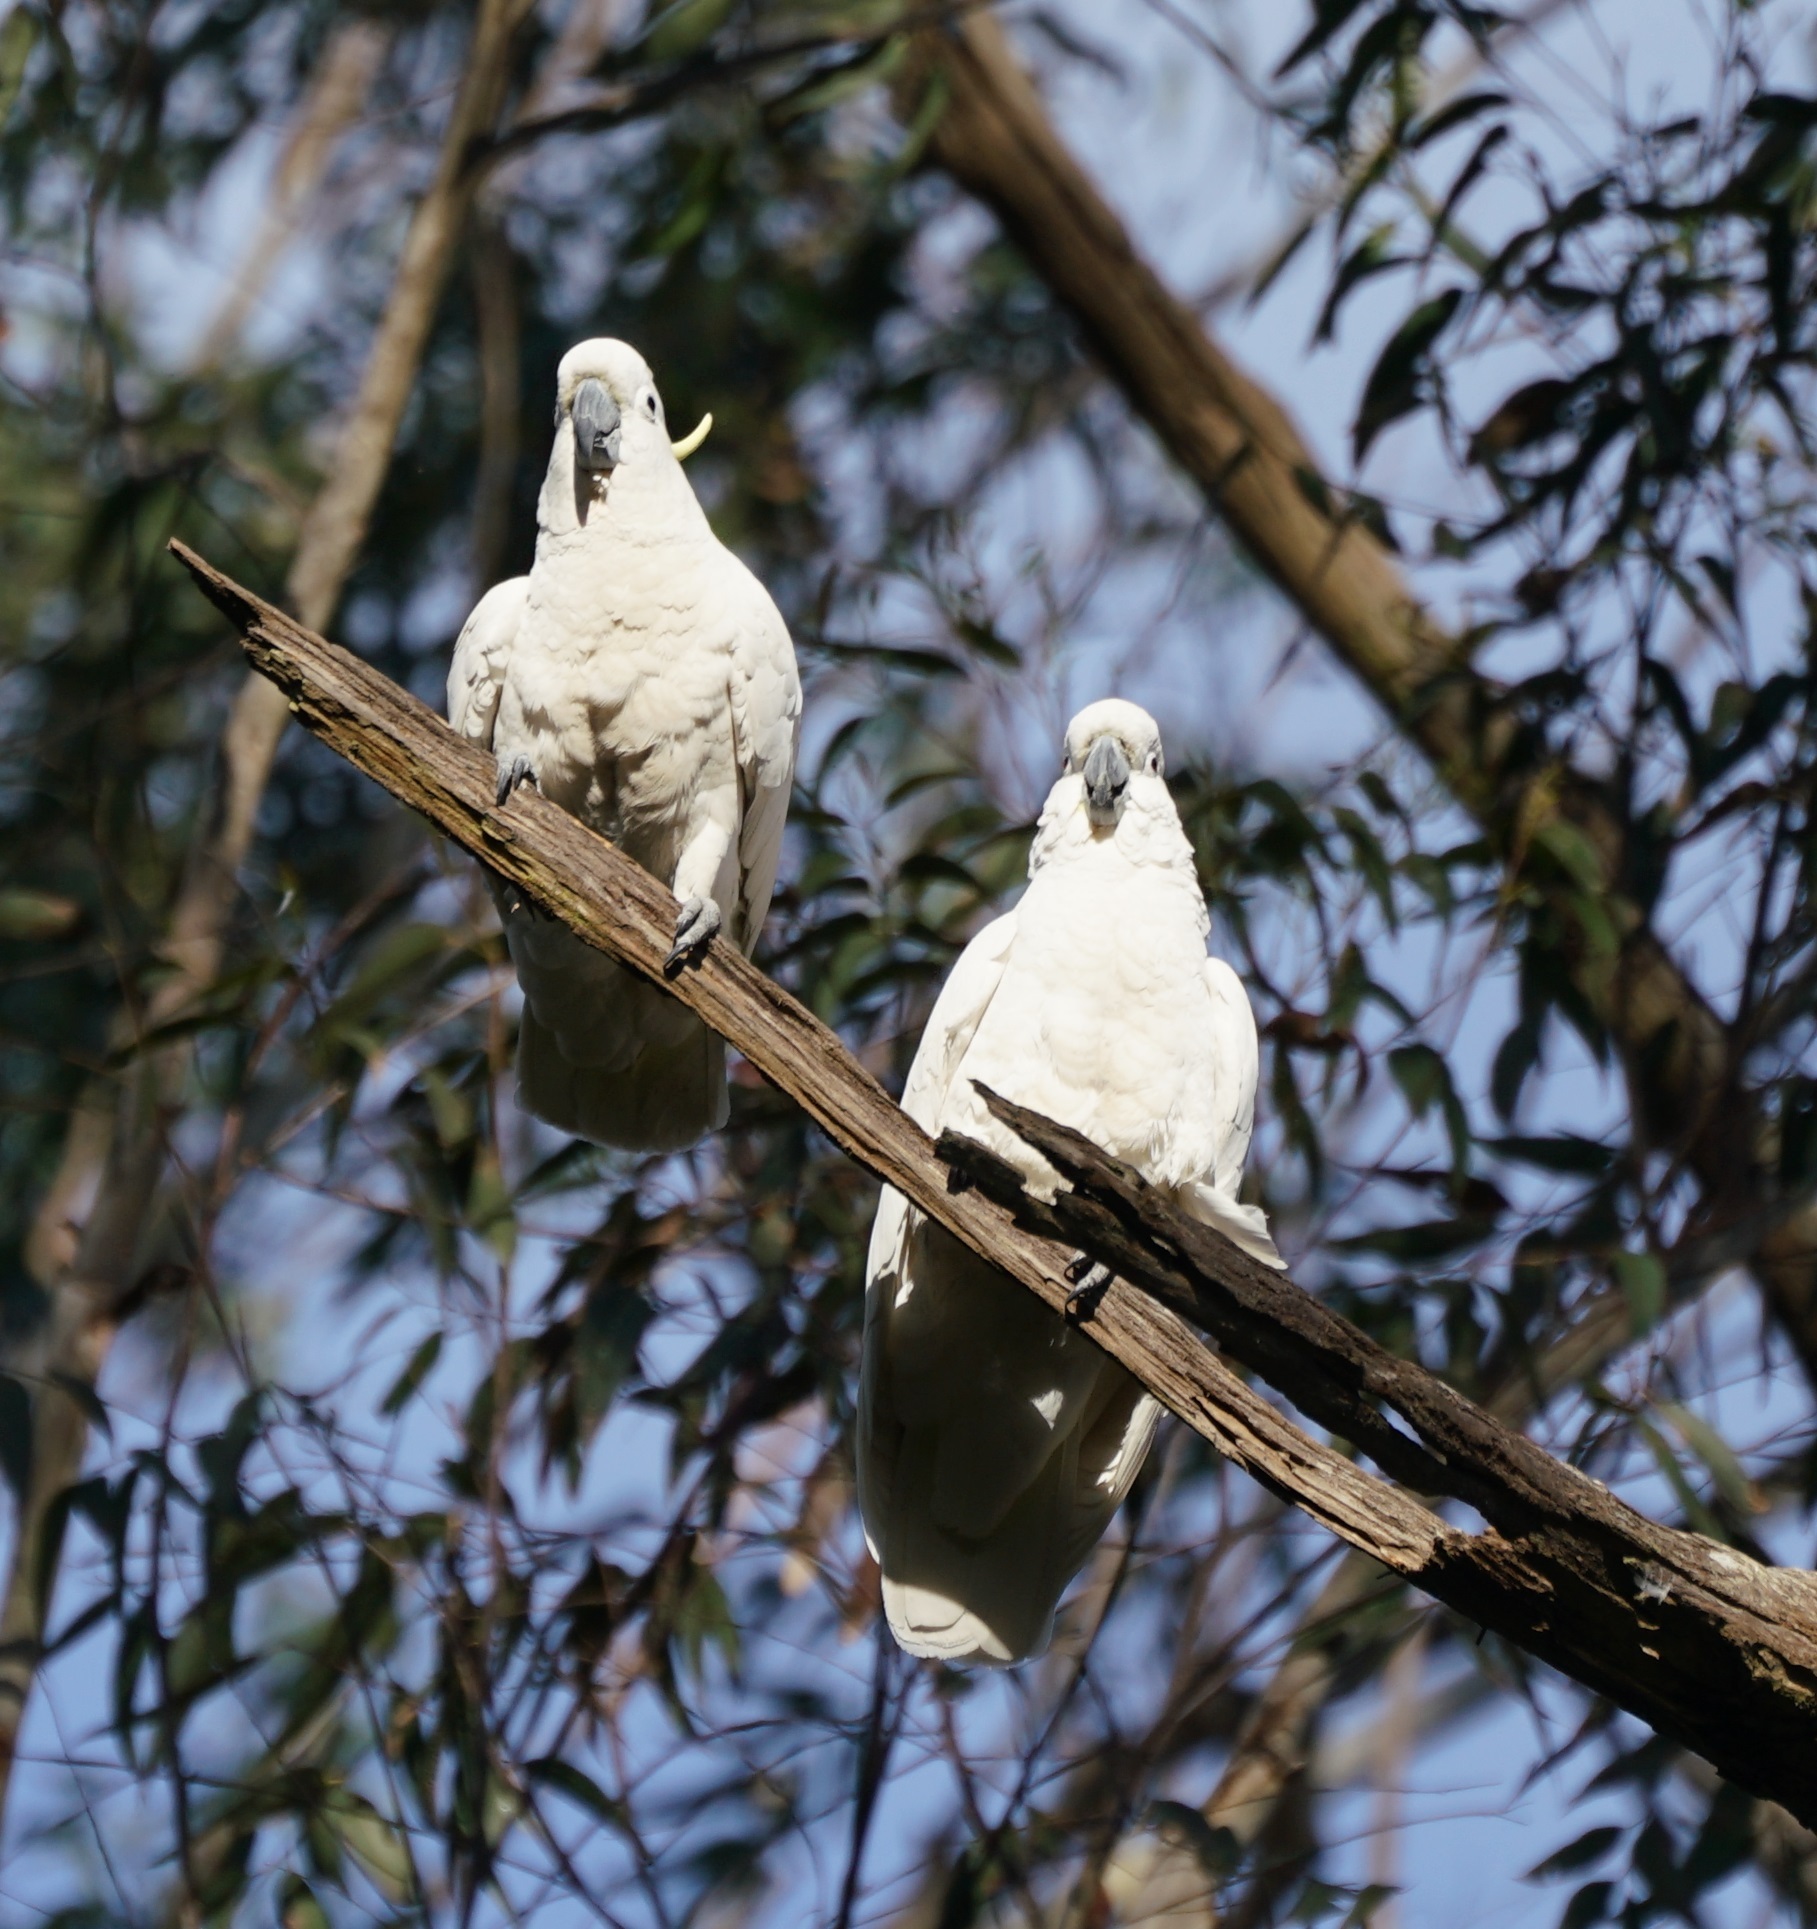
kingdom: Animalia
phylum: Chordata
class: Aves
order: Psittaciformes
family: Psittacidae
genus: Cacatua
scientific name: Cacatua galerita
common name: Sulphur-crested cockatoo
